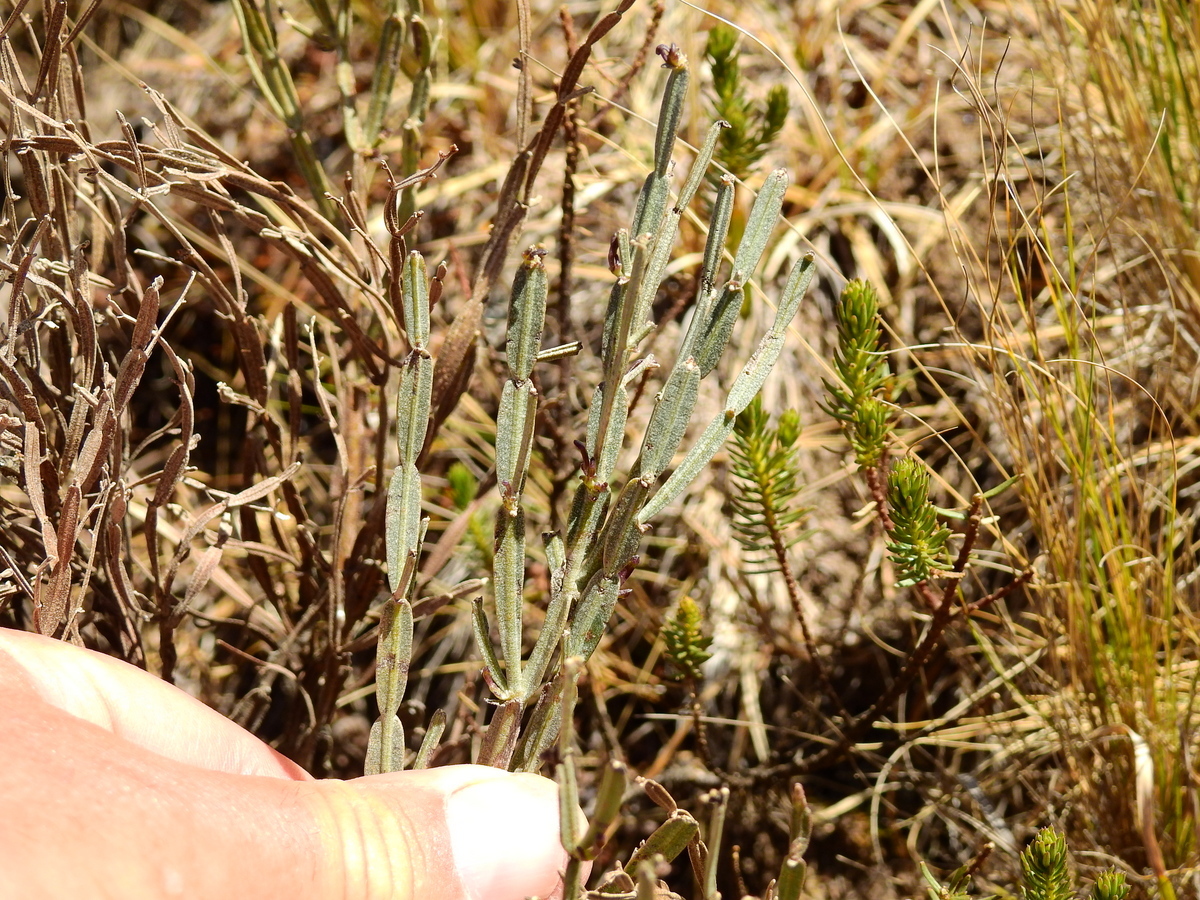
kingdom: Plantae
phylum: Tracheophyta
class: Magnoliopsida
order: Asterales
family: Asteraceae
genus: Baccharis
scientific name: Baccharis articulata
